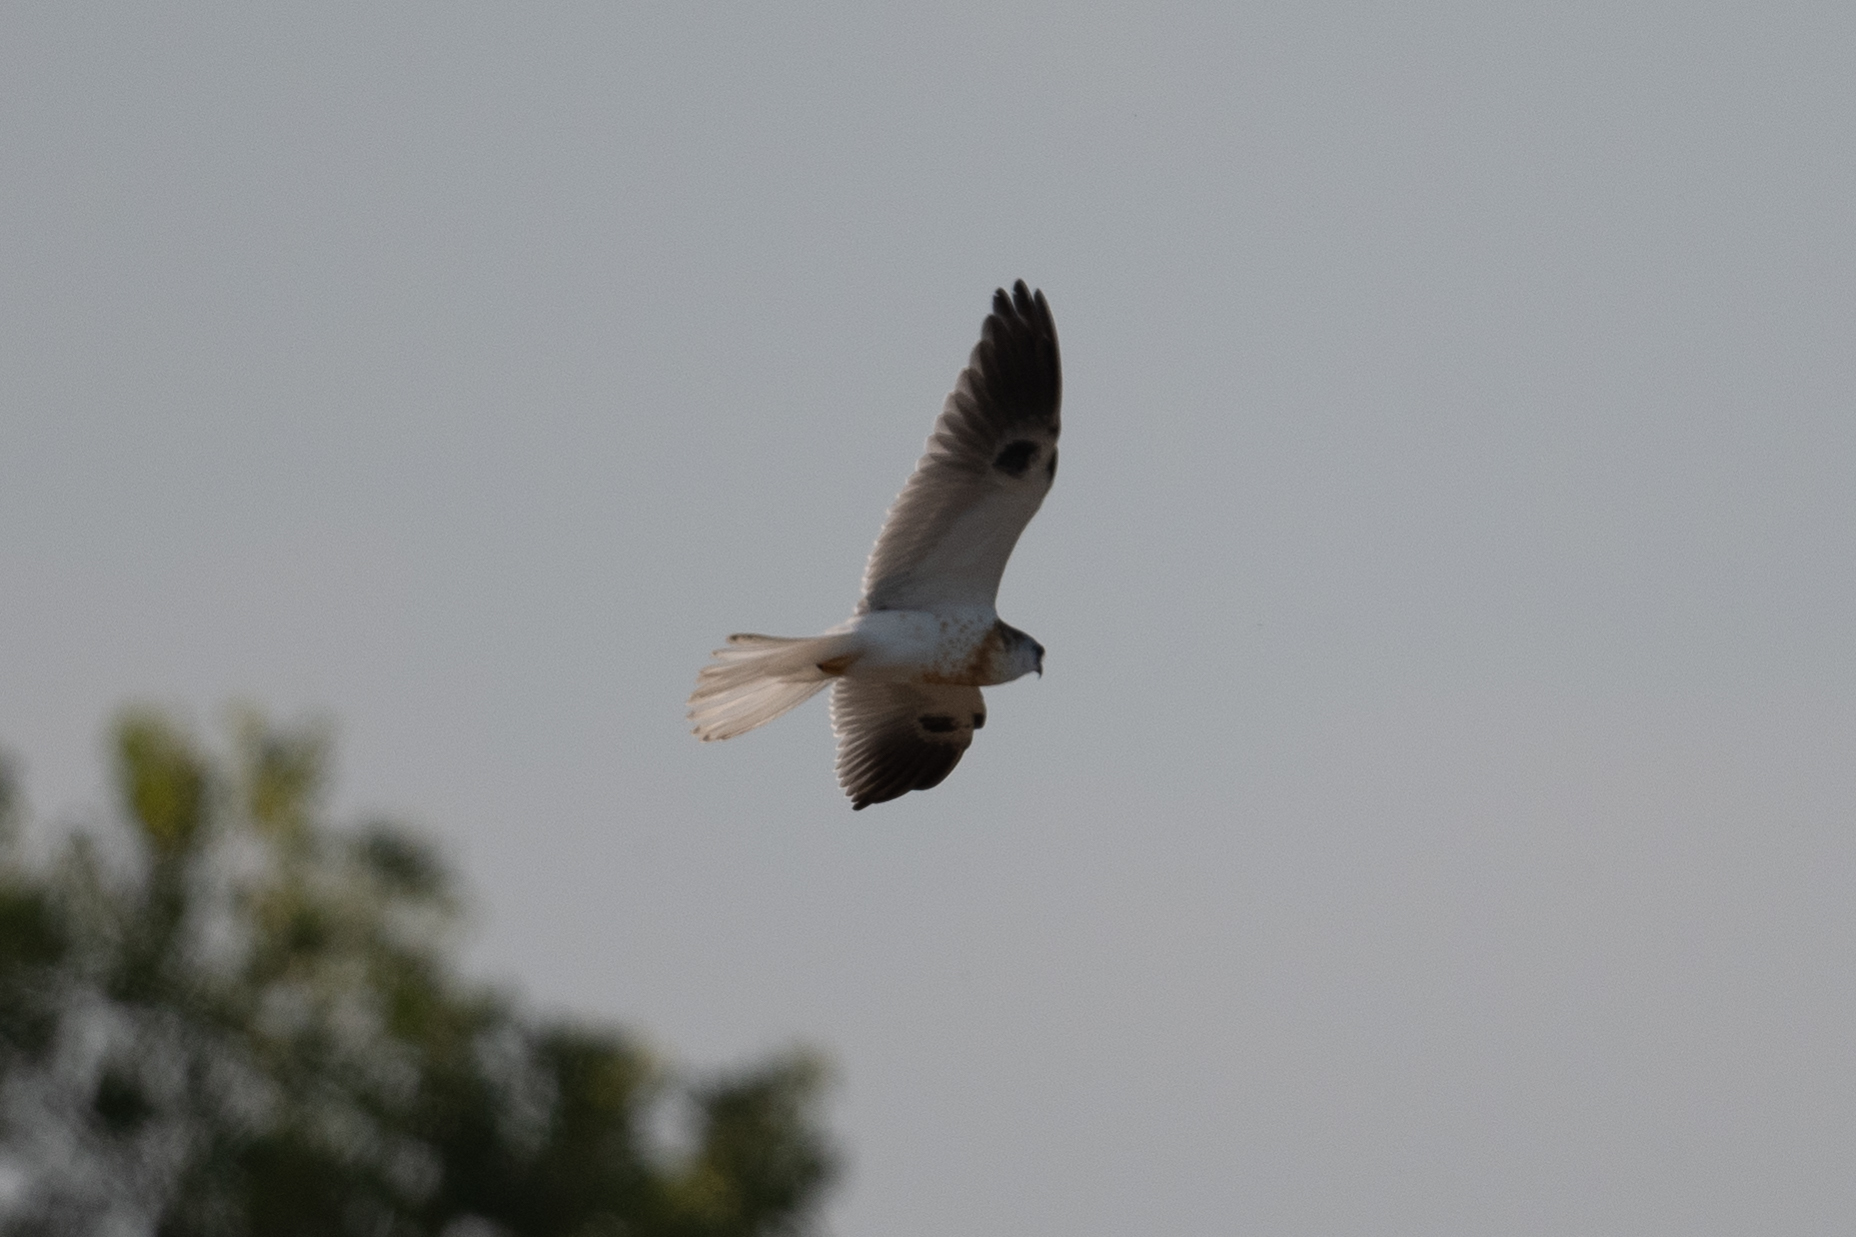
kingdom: Animalia
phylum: Chordata
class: Aves
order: Accipitriformes
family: Accipitridae
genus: Elanus
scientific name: Elanus leucurus
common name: White-tailed kite
